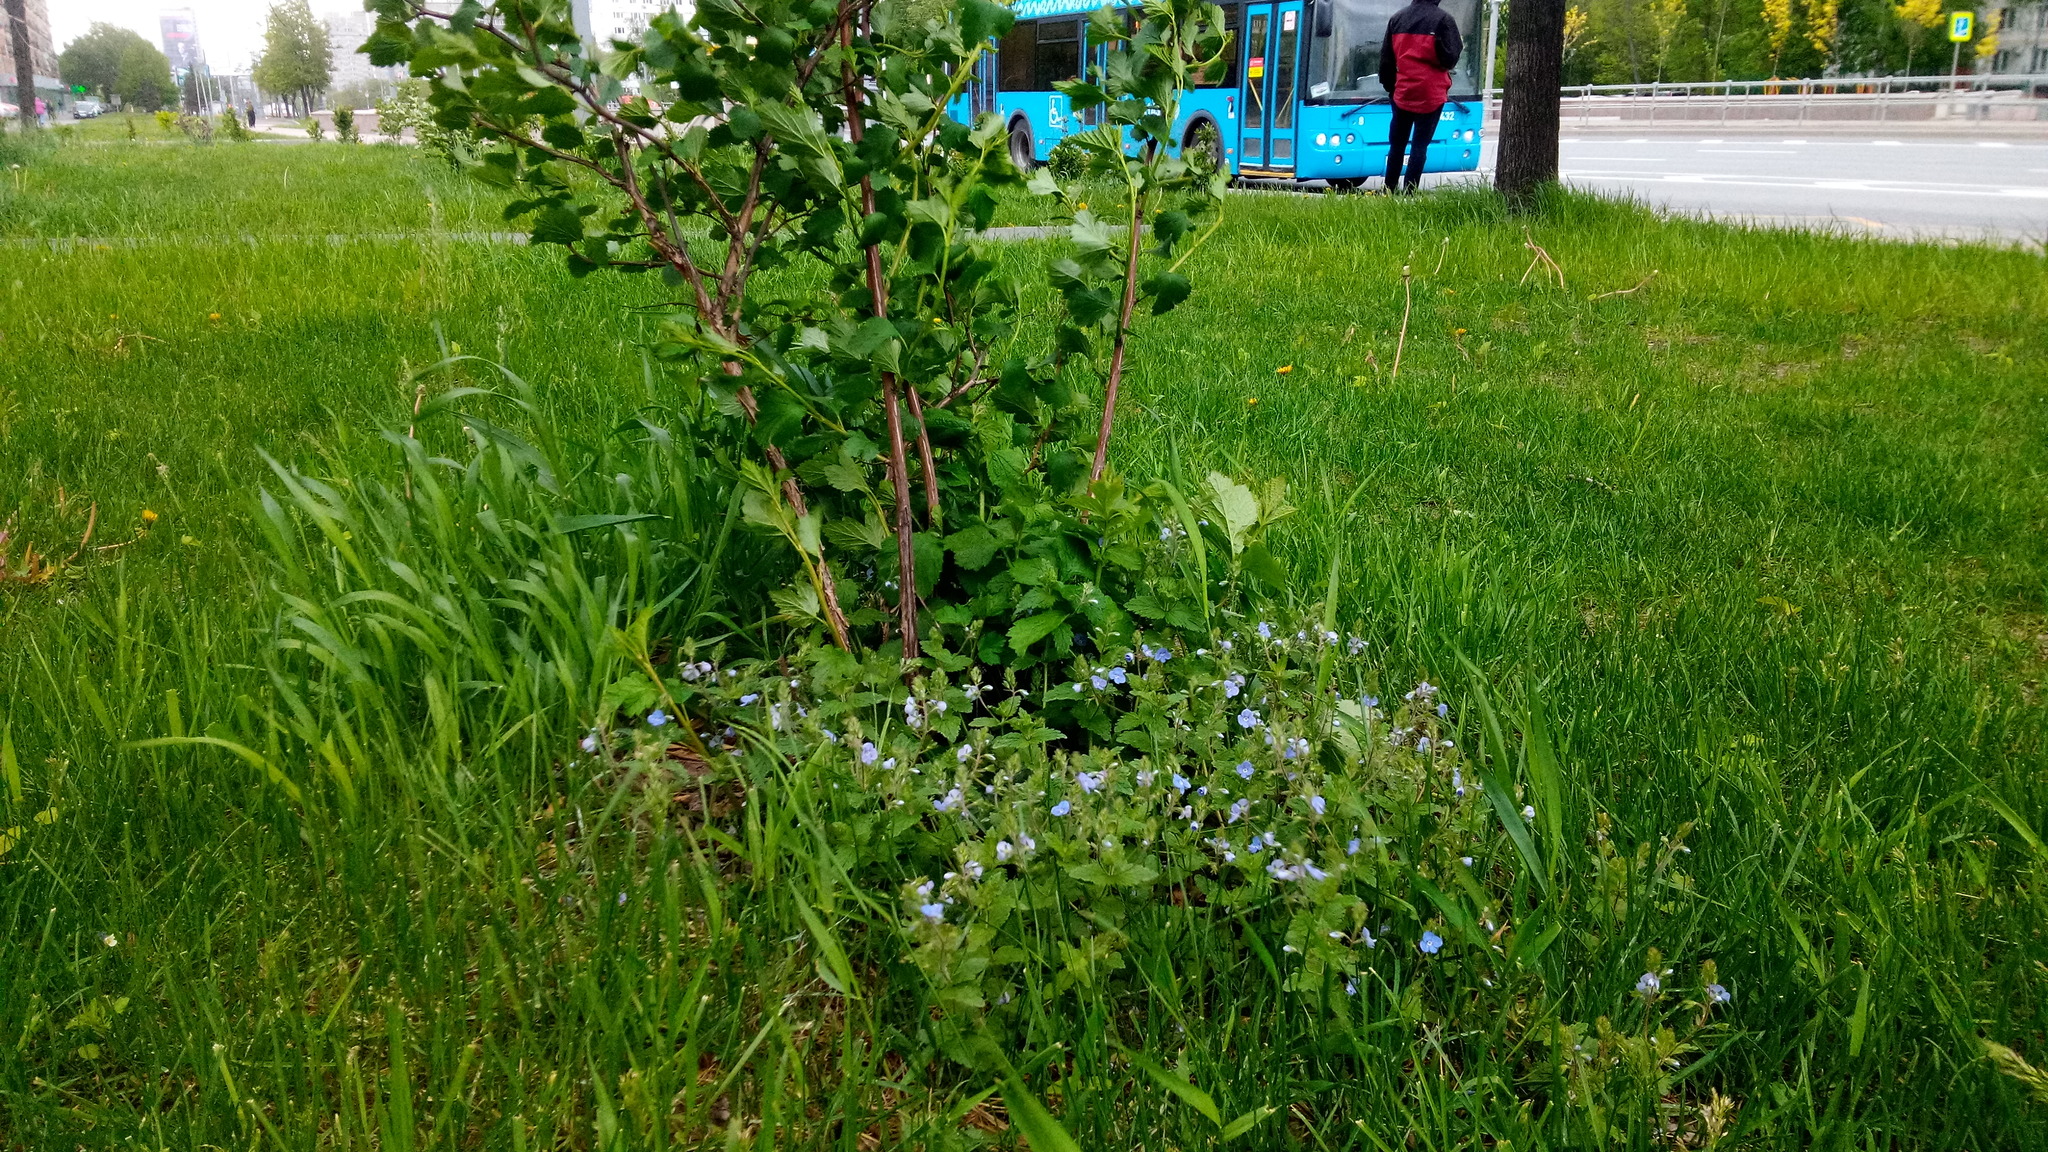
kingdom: Plantae
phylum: Tracheophyta
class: Magnoliopsida
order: Lamiales
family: Plantaginaceae
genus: Veronica
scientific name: Veronica chamaedrys
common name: Germander speedwell
